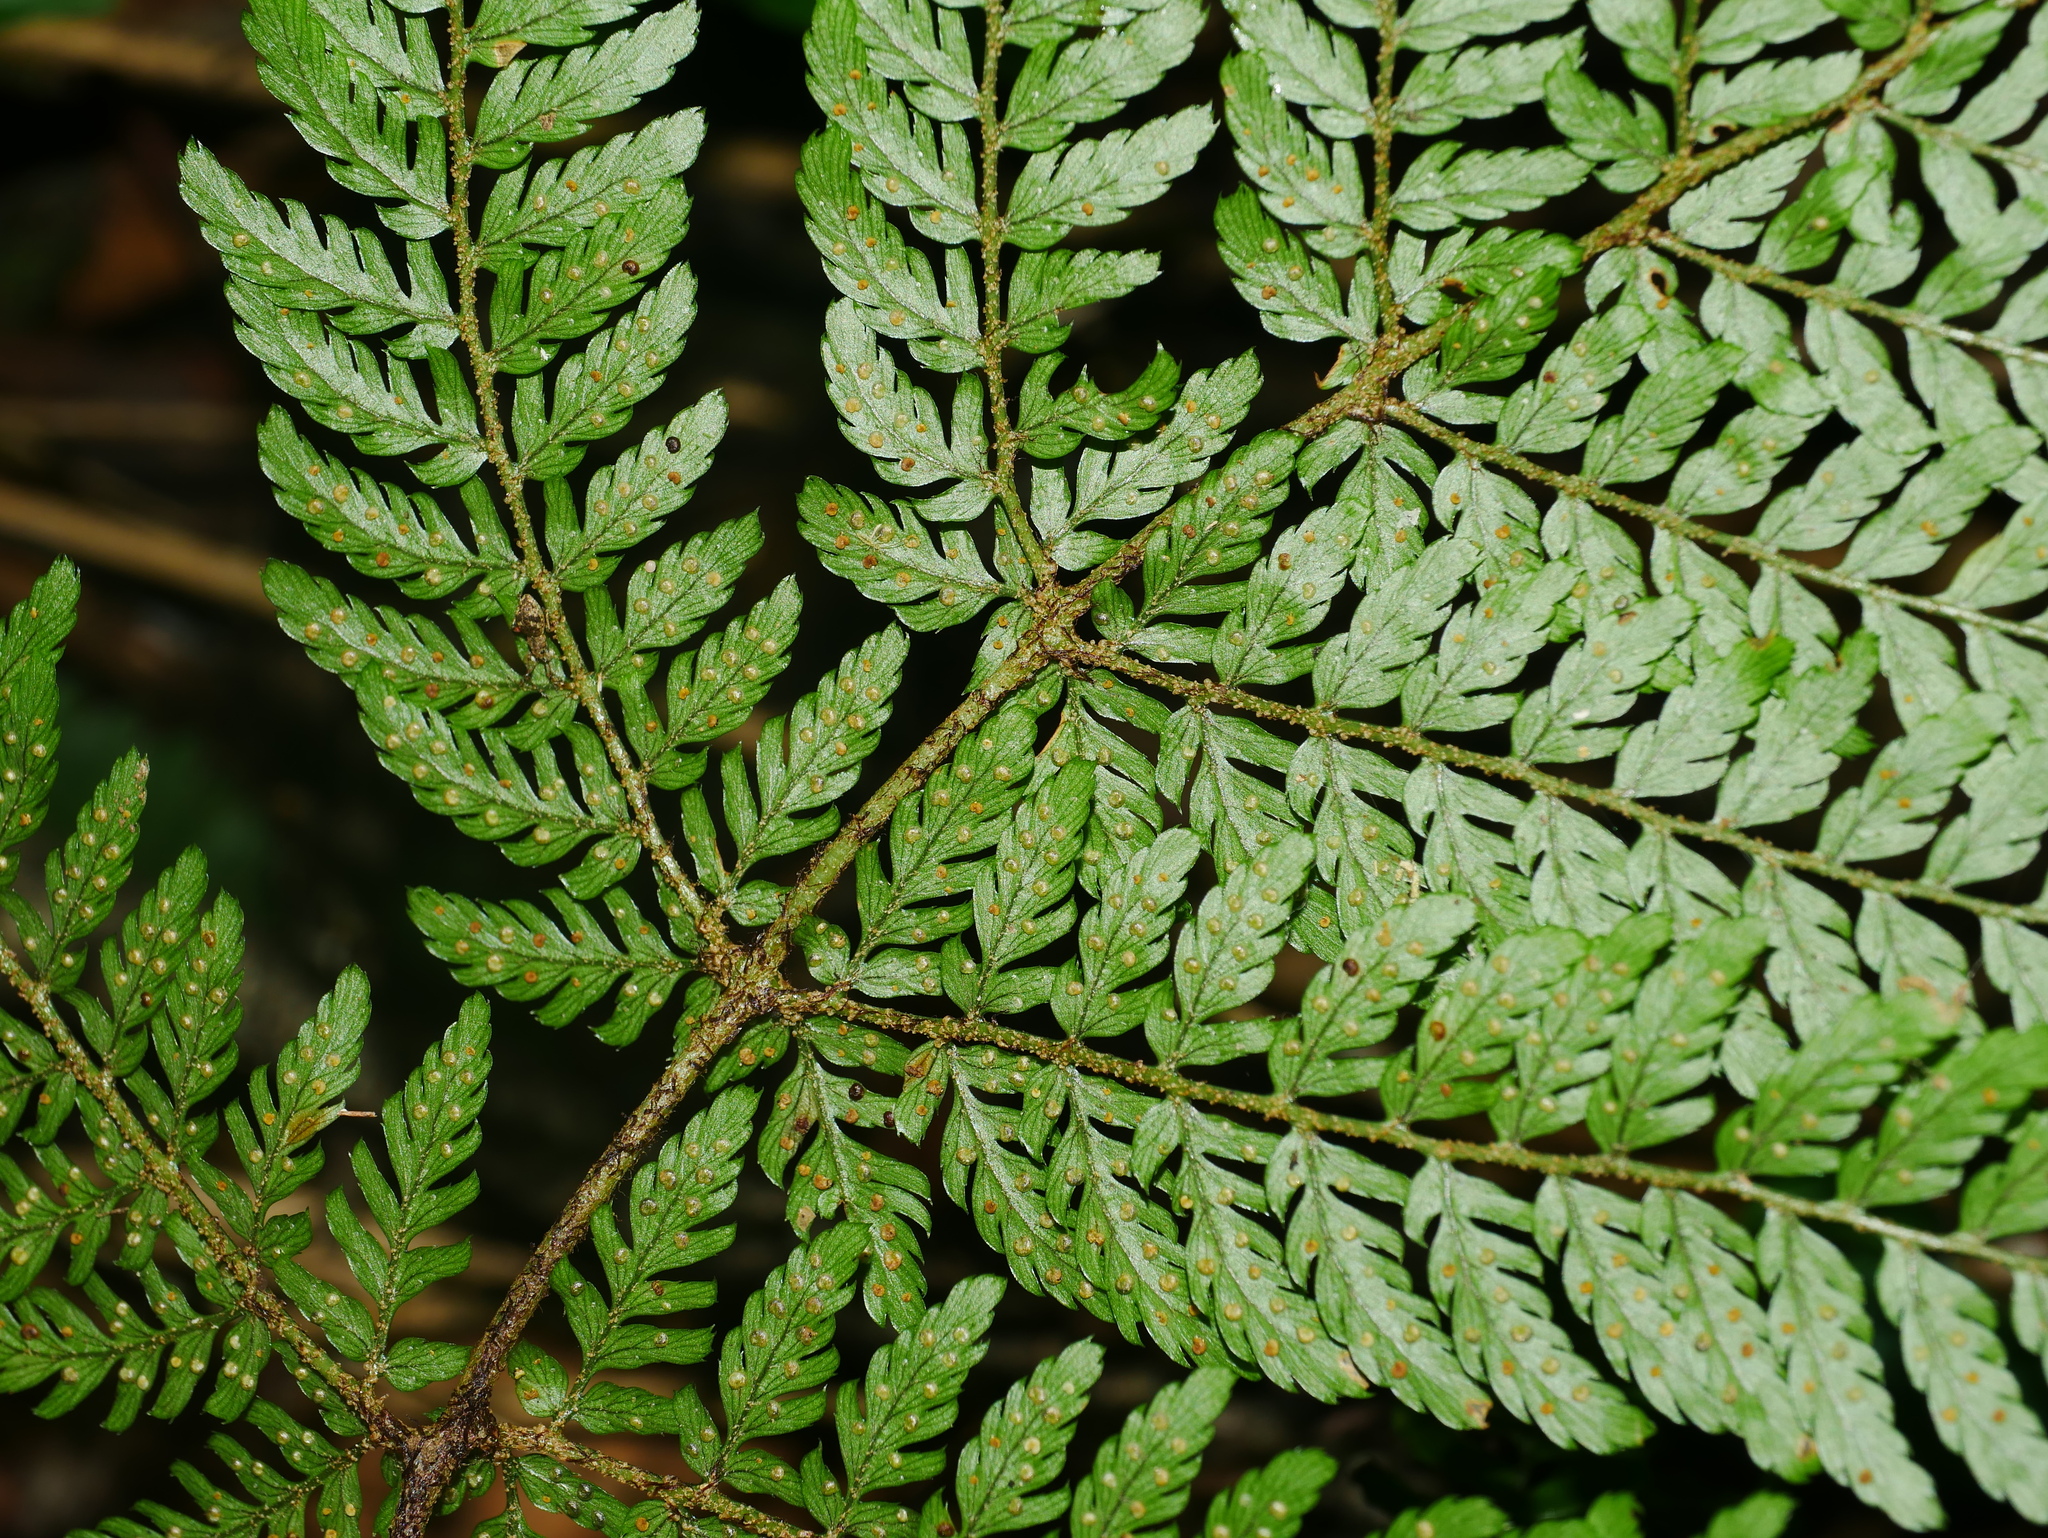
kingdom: Plantae
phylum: Tracheophyta
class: Polypodiopsida
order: Polypodiales
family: Dryopteridaceae
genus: Dryopteris
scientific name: Dryopteris formosana
